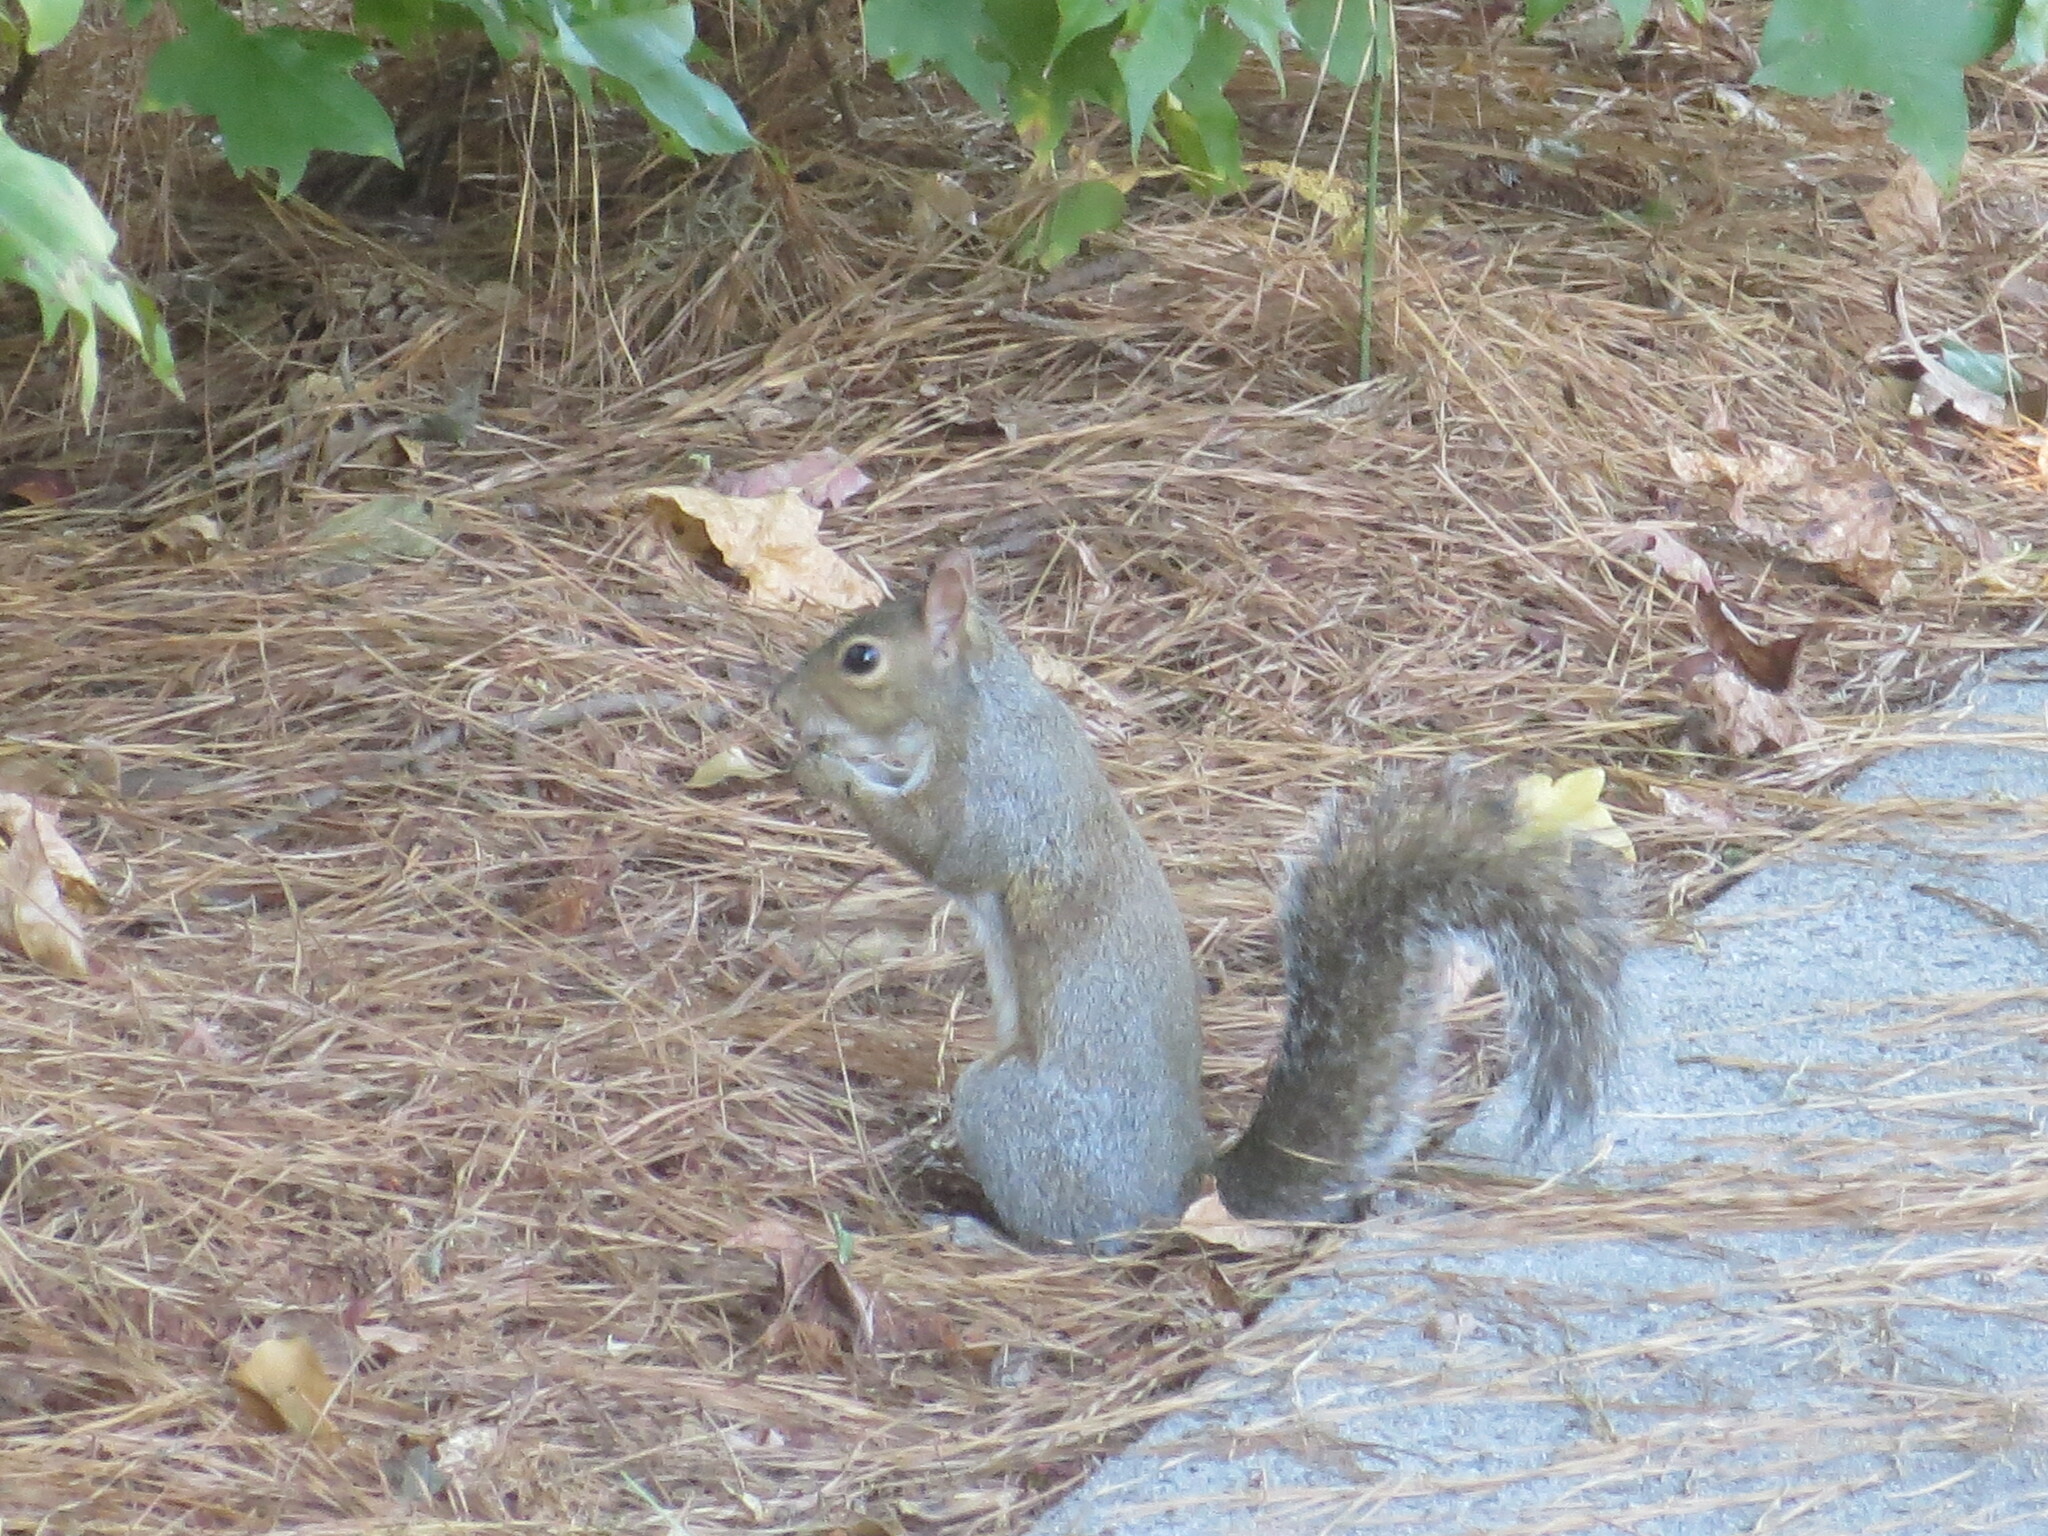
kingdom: Animalia
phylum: Chordata
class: Mammalia
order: Rodentia
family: Sciuridae
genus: Sciurus
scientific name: Sciurus carolinensis
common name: Eastern gray squirrel
